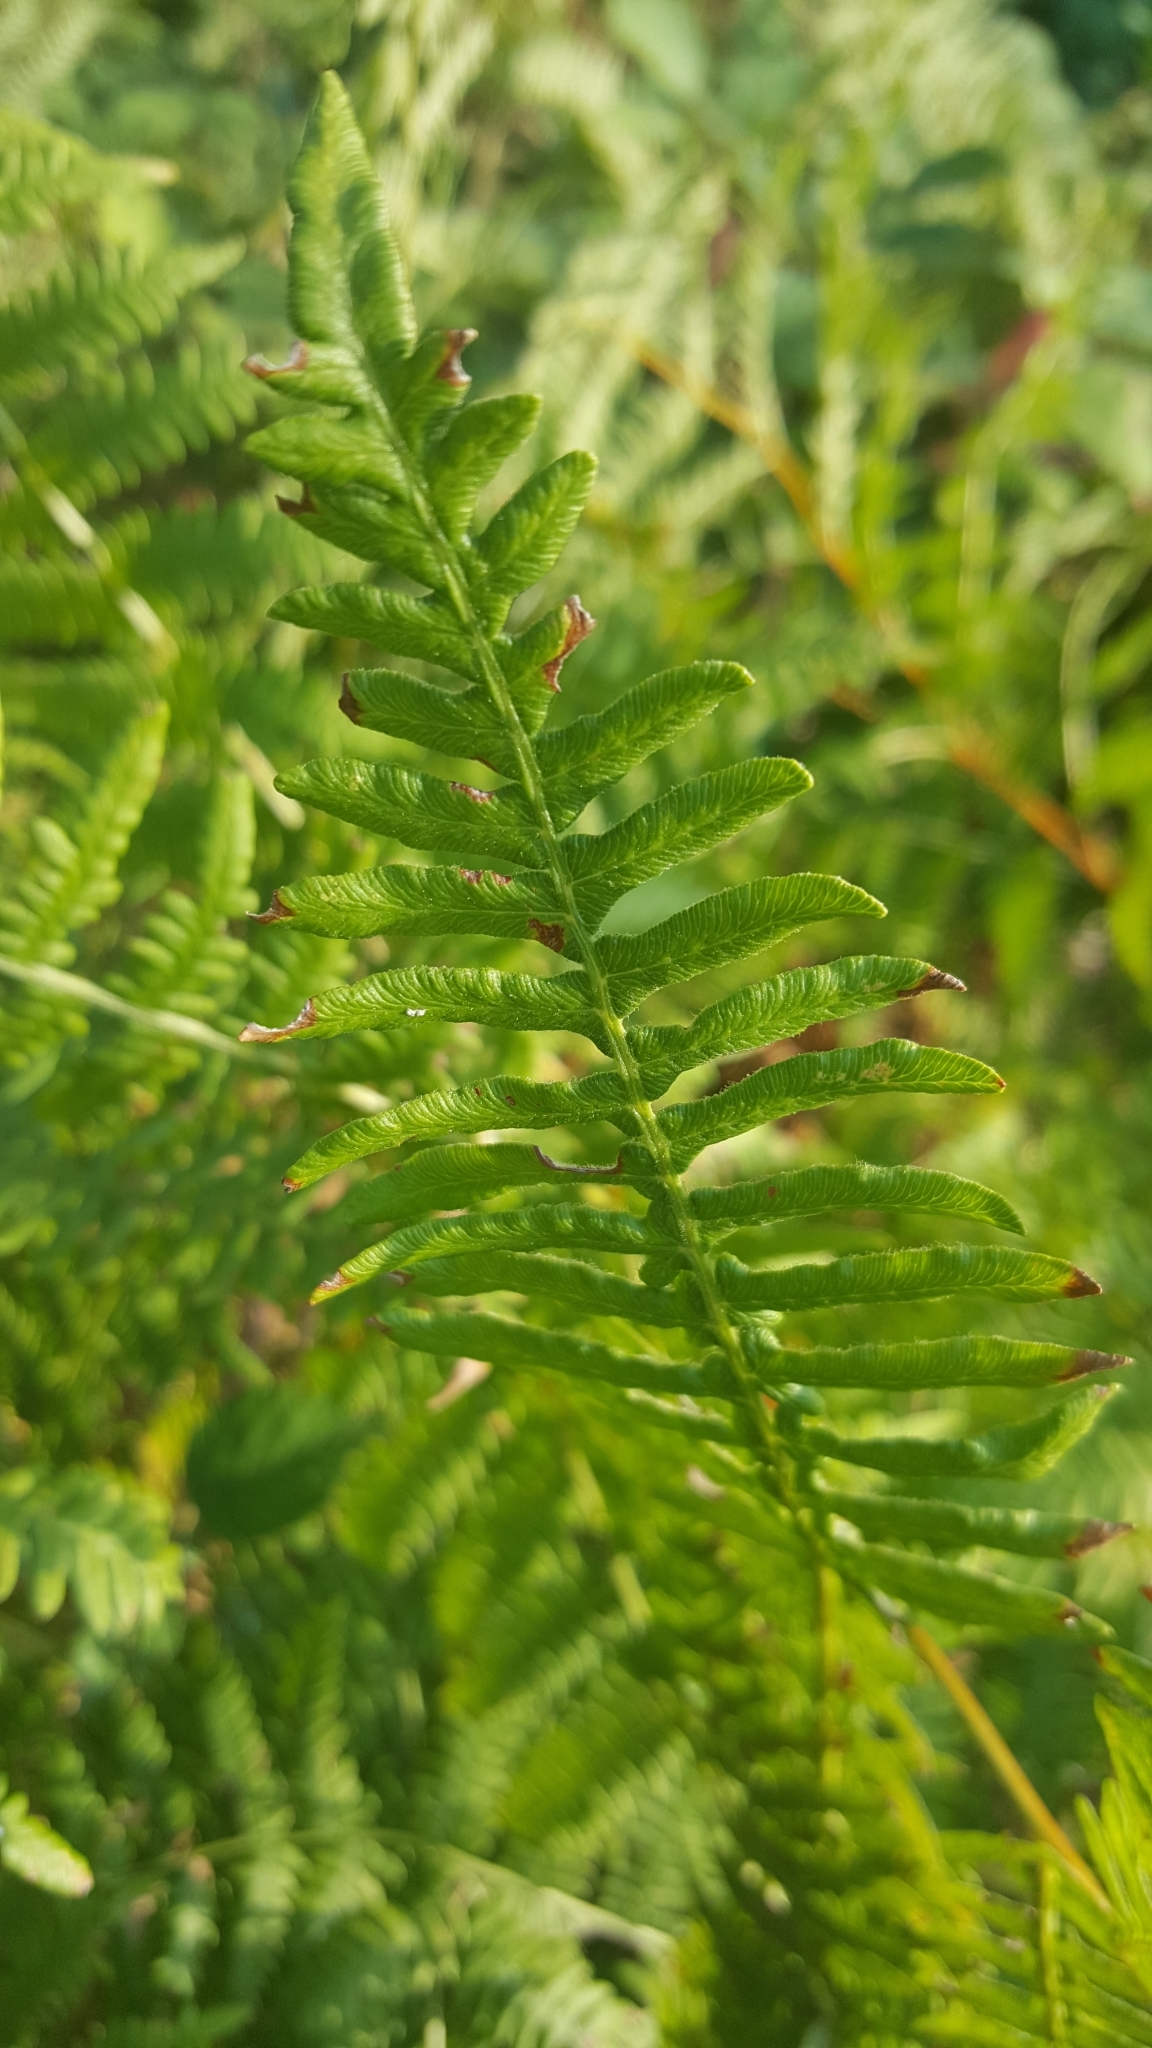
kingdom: Plantae
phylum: Tracheophyta
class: Polypodiopsida
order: Polypodiales
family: Dennstaedtiaceae
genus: Pteridium
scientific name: Pteridium aquilinum
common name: Bracken
